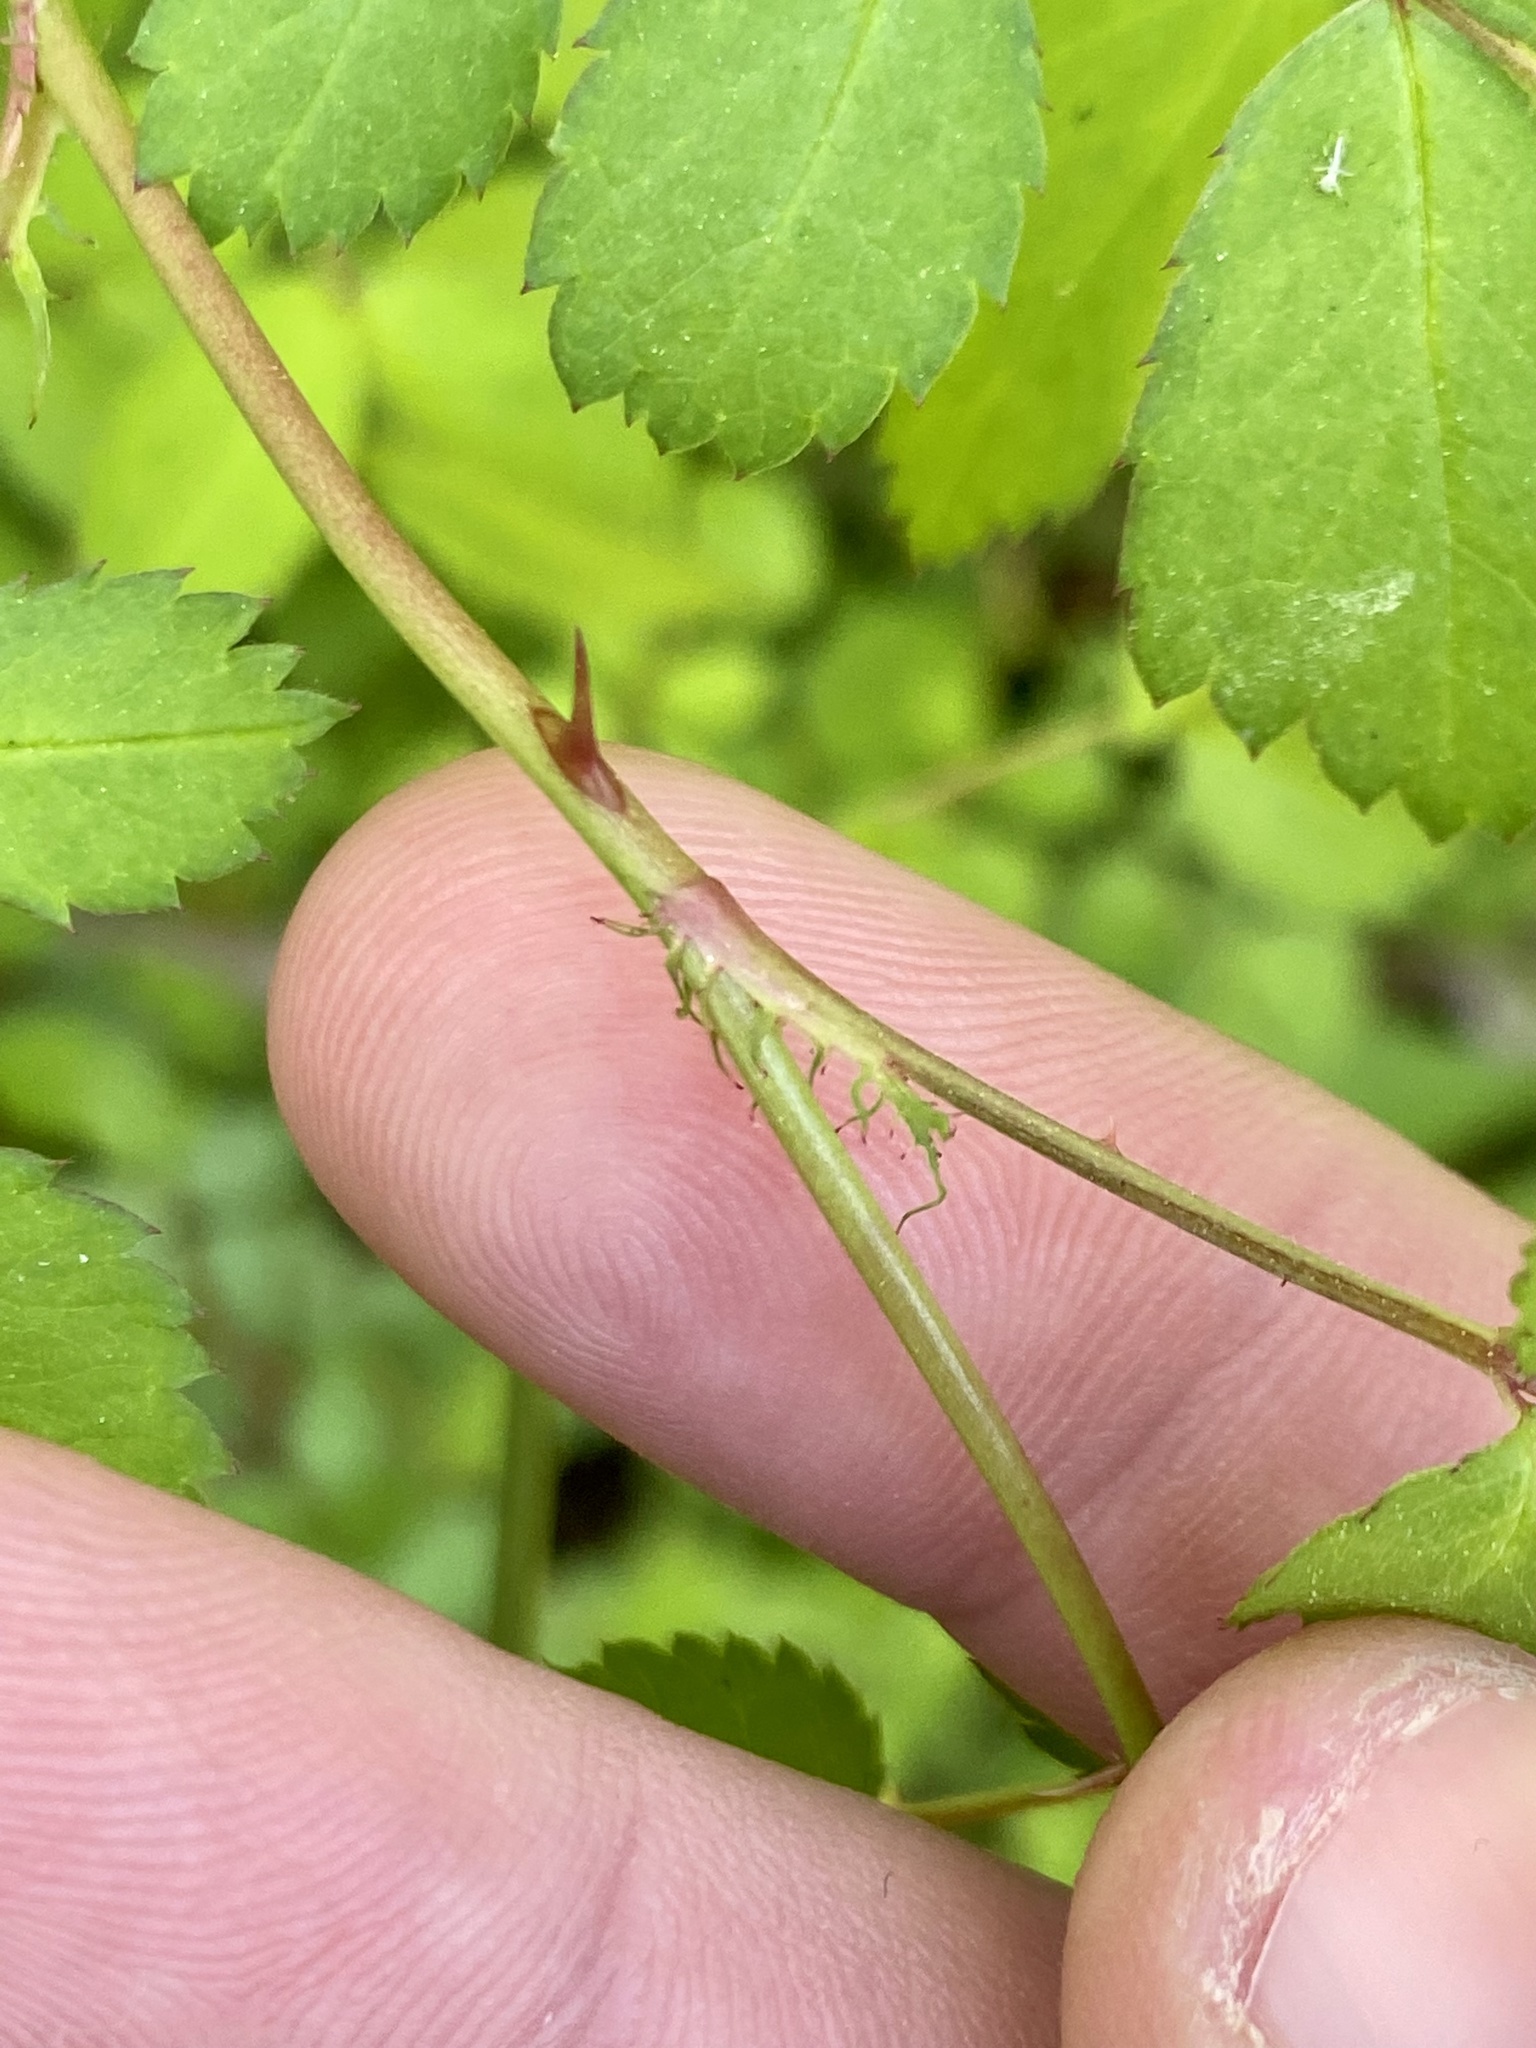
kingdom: Plantae
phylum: Tracheophyta
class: Magnoliopsida
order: Rosales
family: Rosaceae
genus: Rosa
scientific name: Rosa multiflora
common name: Multiflora rose
